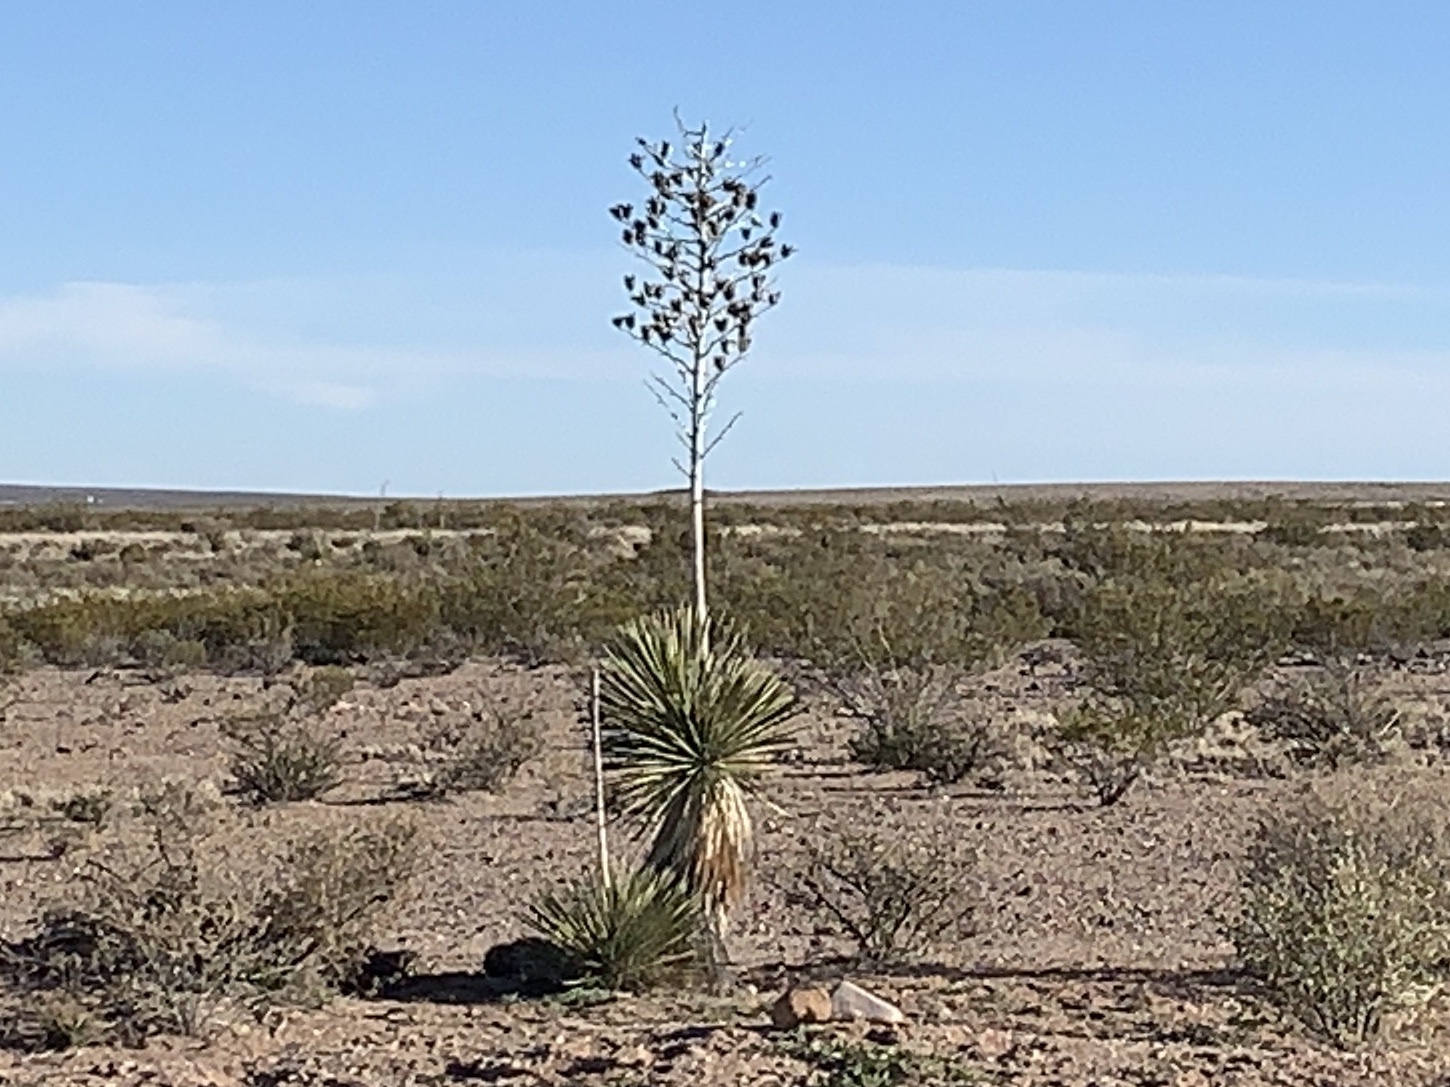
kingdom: Plantae
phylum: Tracheophyta
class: Liliopsida
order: Asparagales
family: Asparagaceae
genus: Yucca
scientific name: Yucca elata
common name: Palmella
